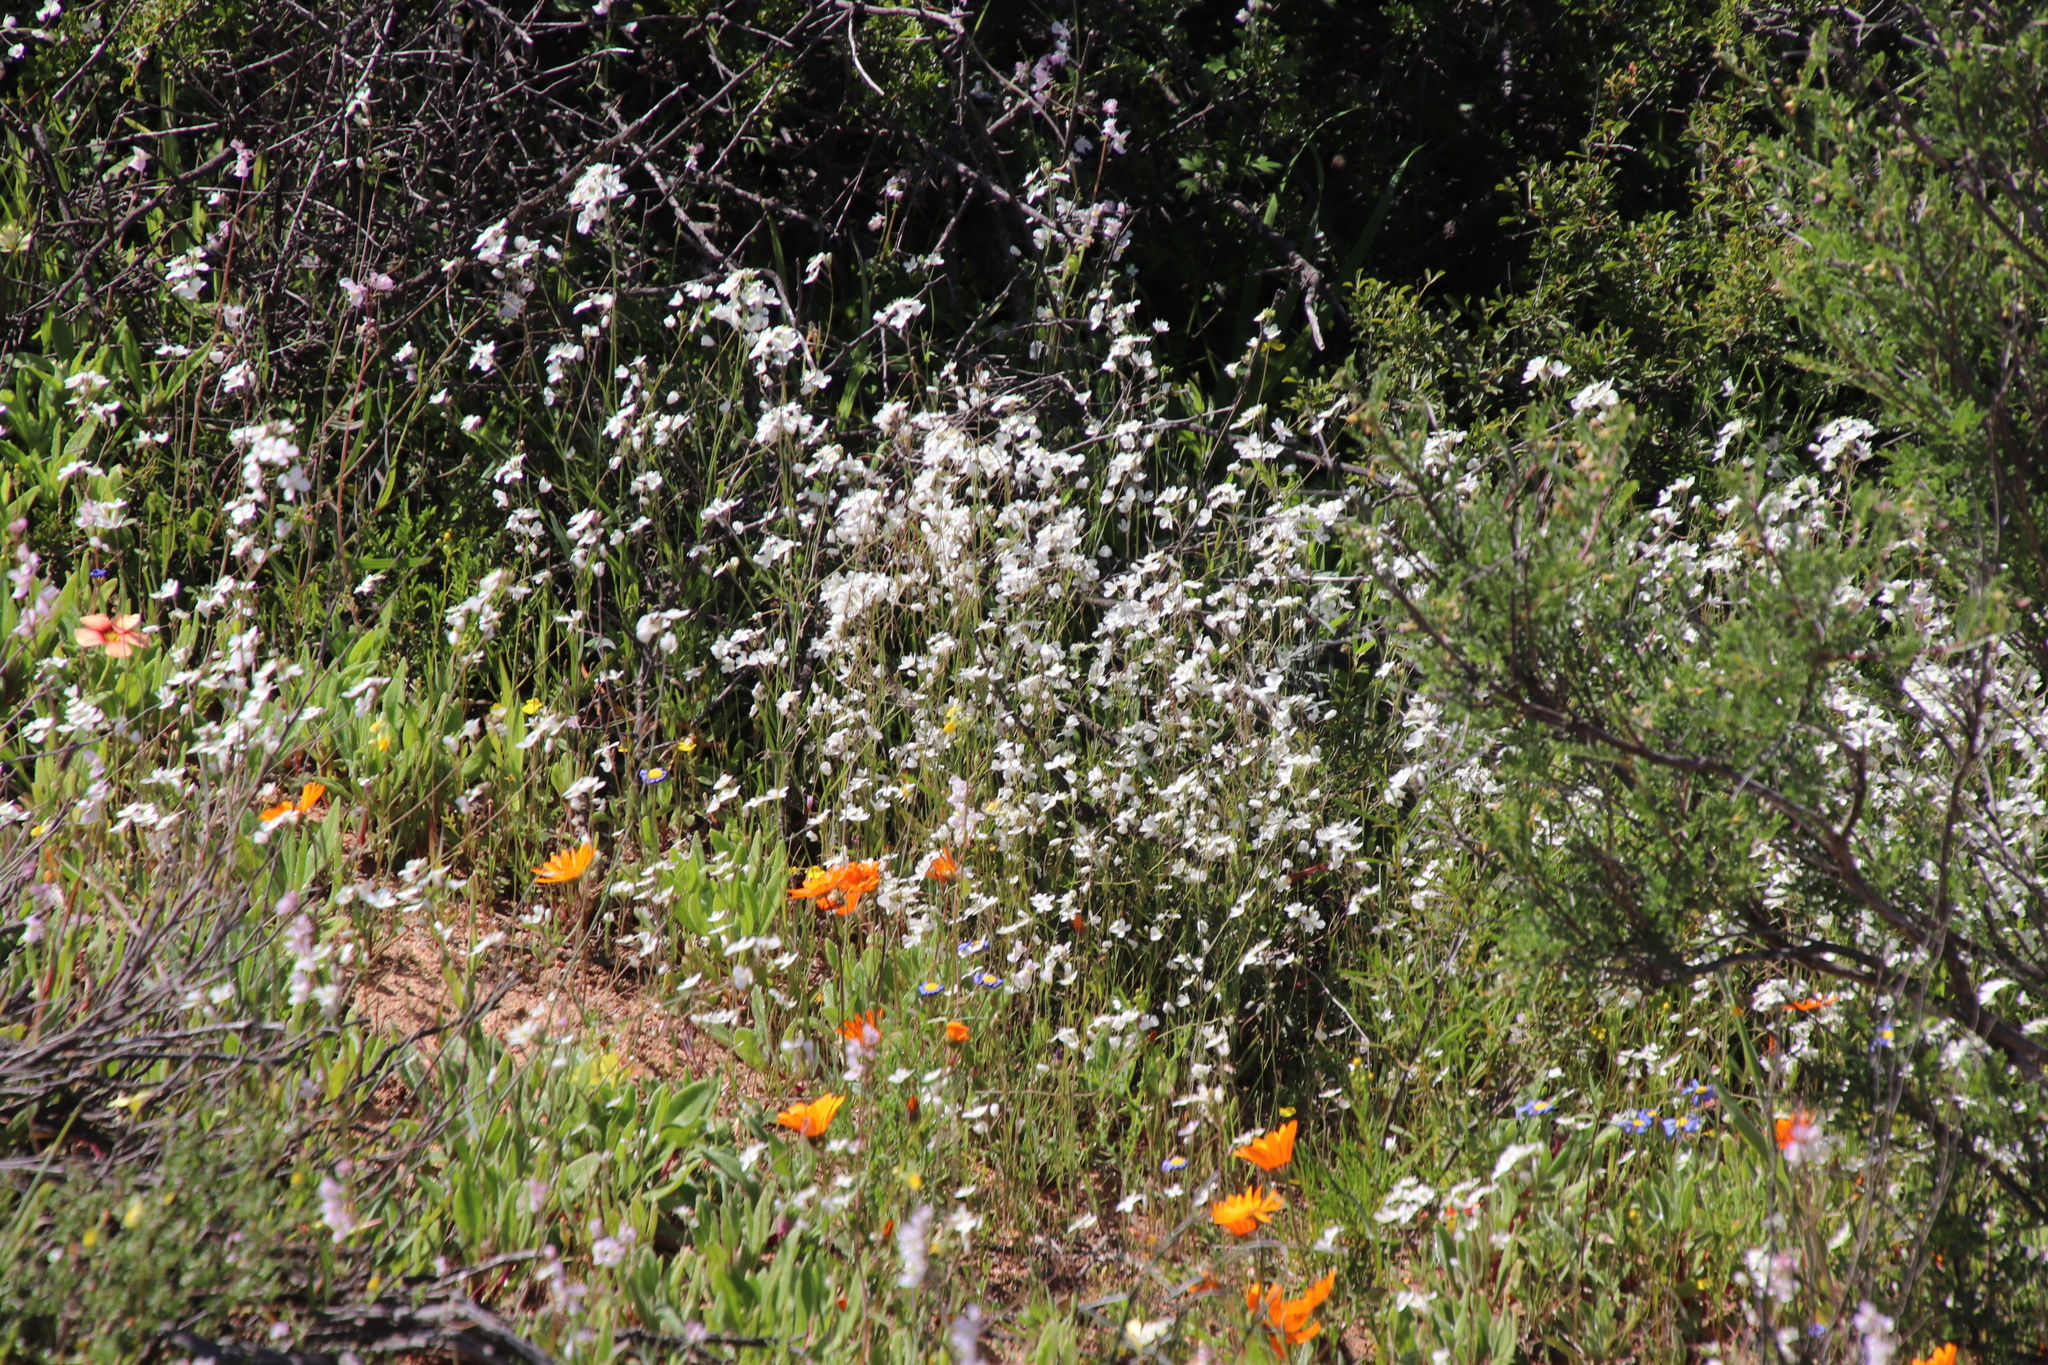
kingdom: Plantae
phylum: Tracheophyta
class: Magnoliopsida
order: Brassicales
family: Brassicaceae
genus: Heliophila
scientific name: Heliophila amplexicaulis
